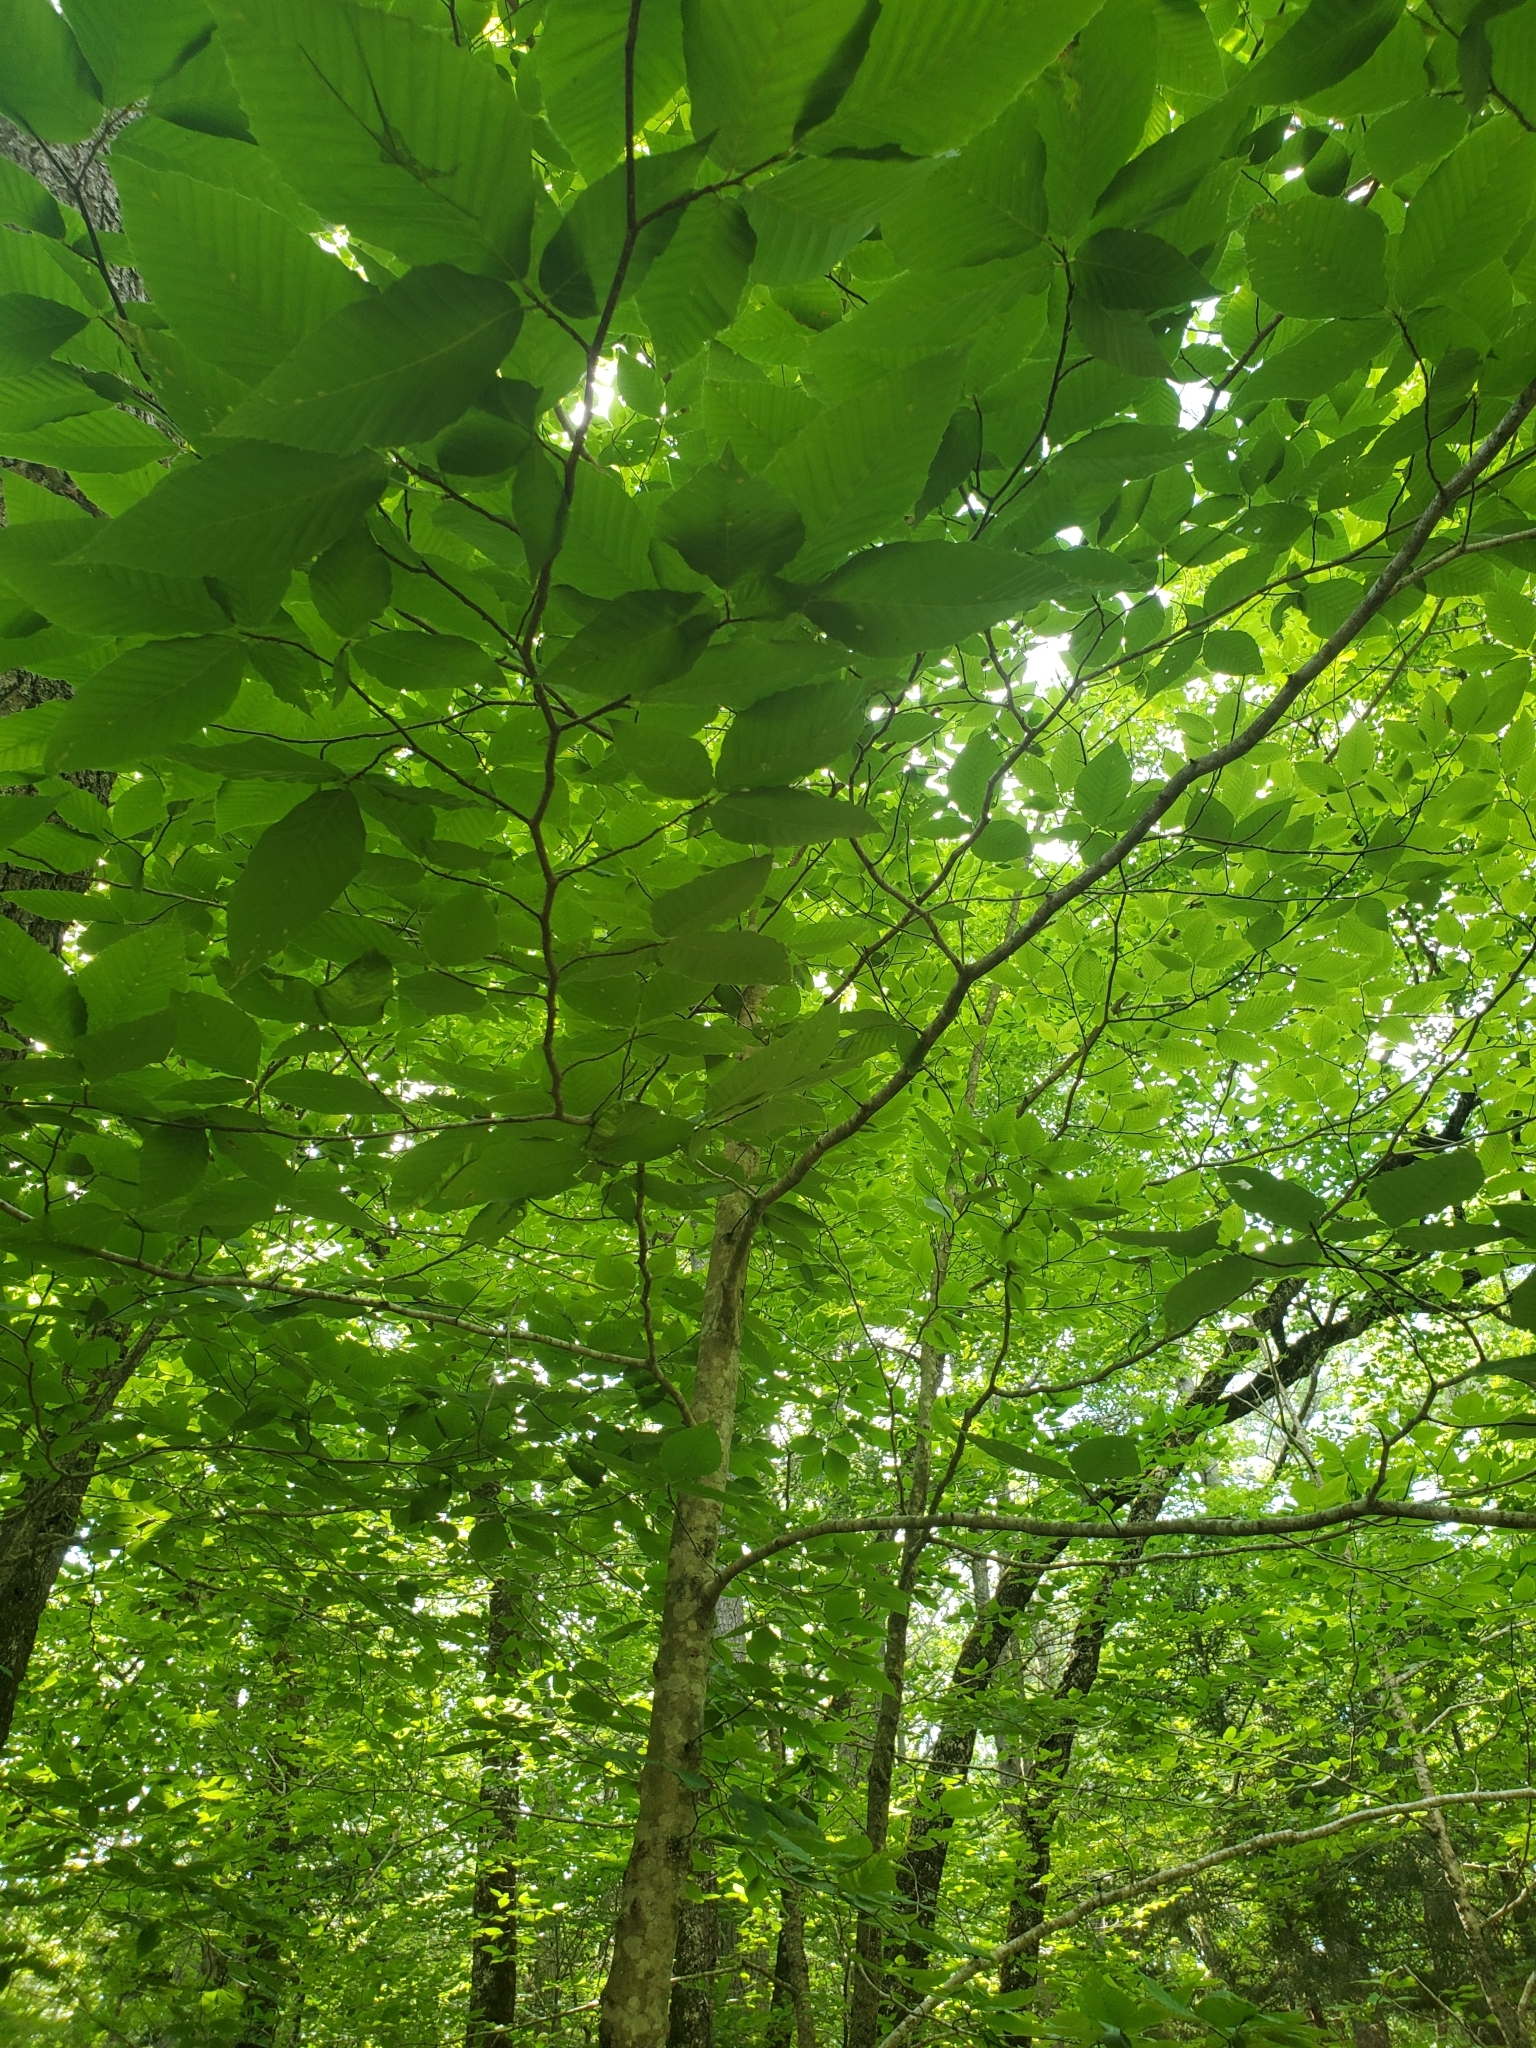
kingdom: Plantae
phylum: Tracheophyta
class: Magnoliopsida
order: Fagales
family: Fagaceae
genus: Fagus
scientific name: Fagus grandifolia
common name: American beech
